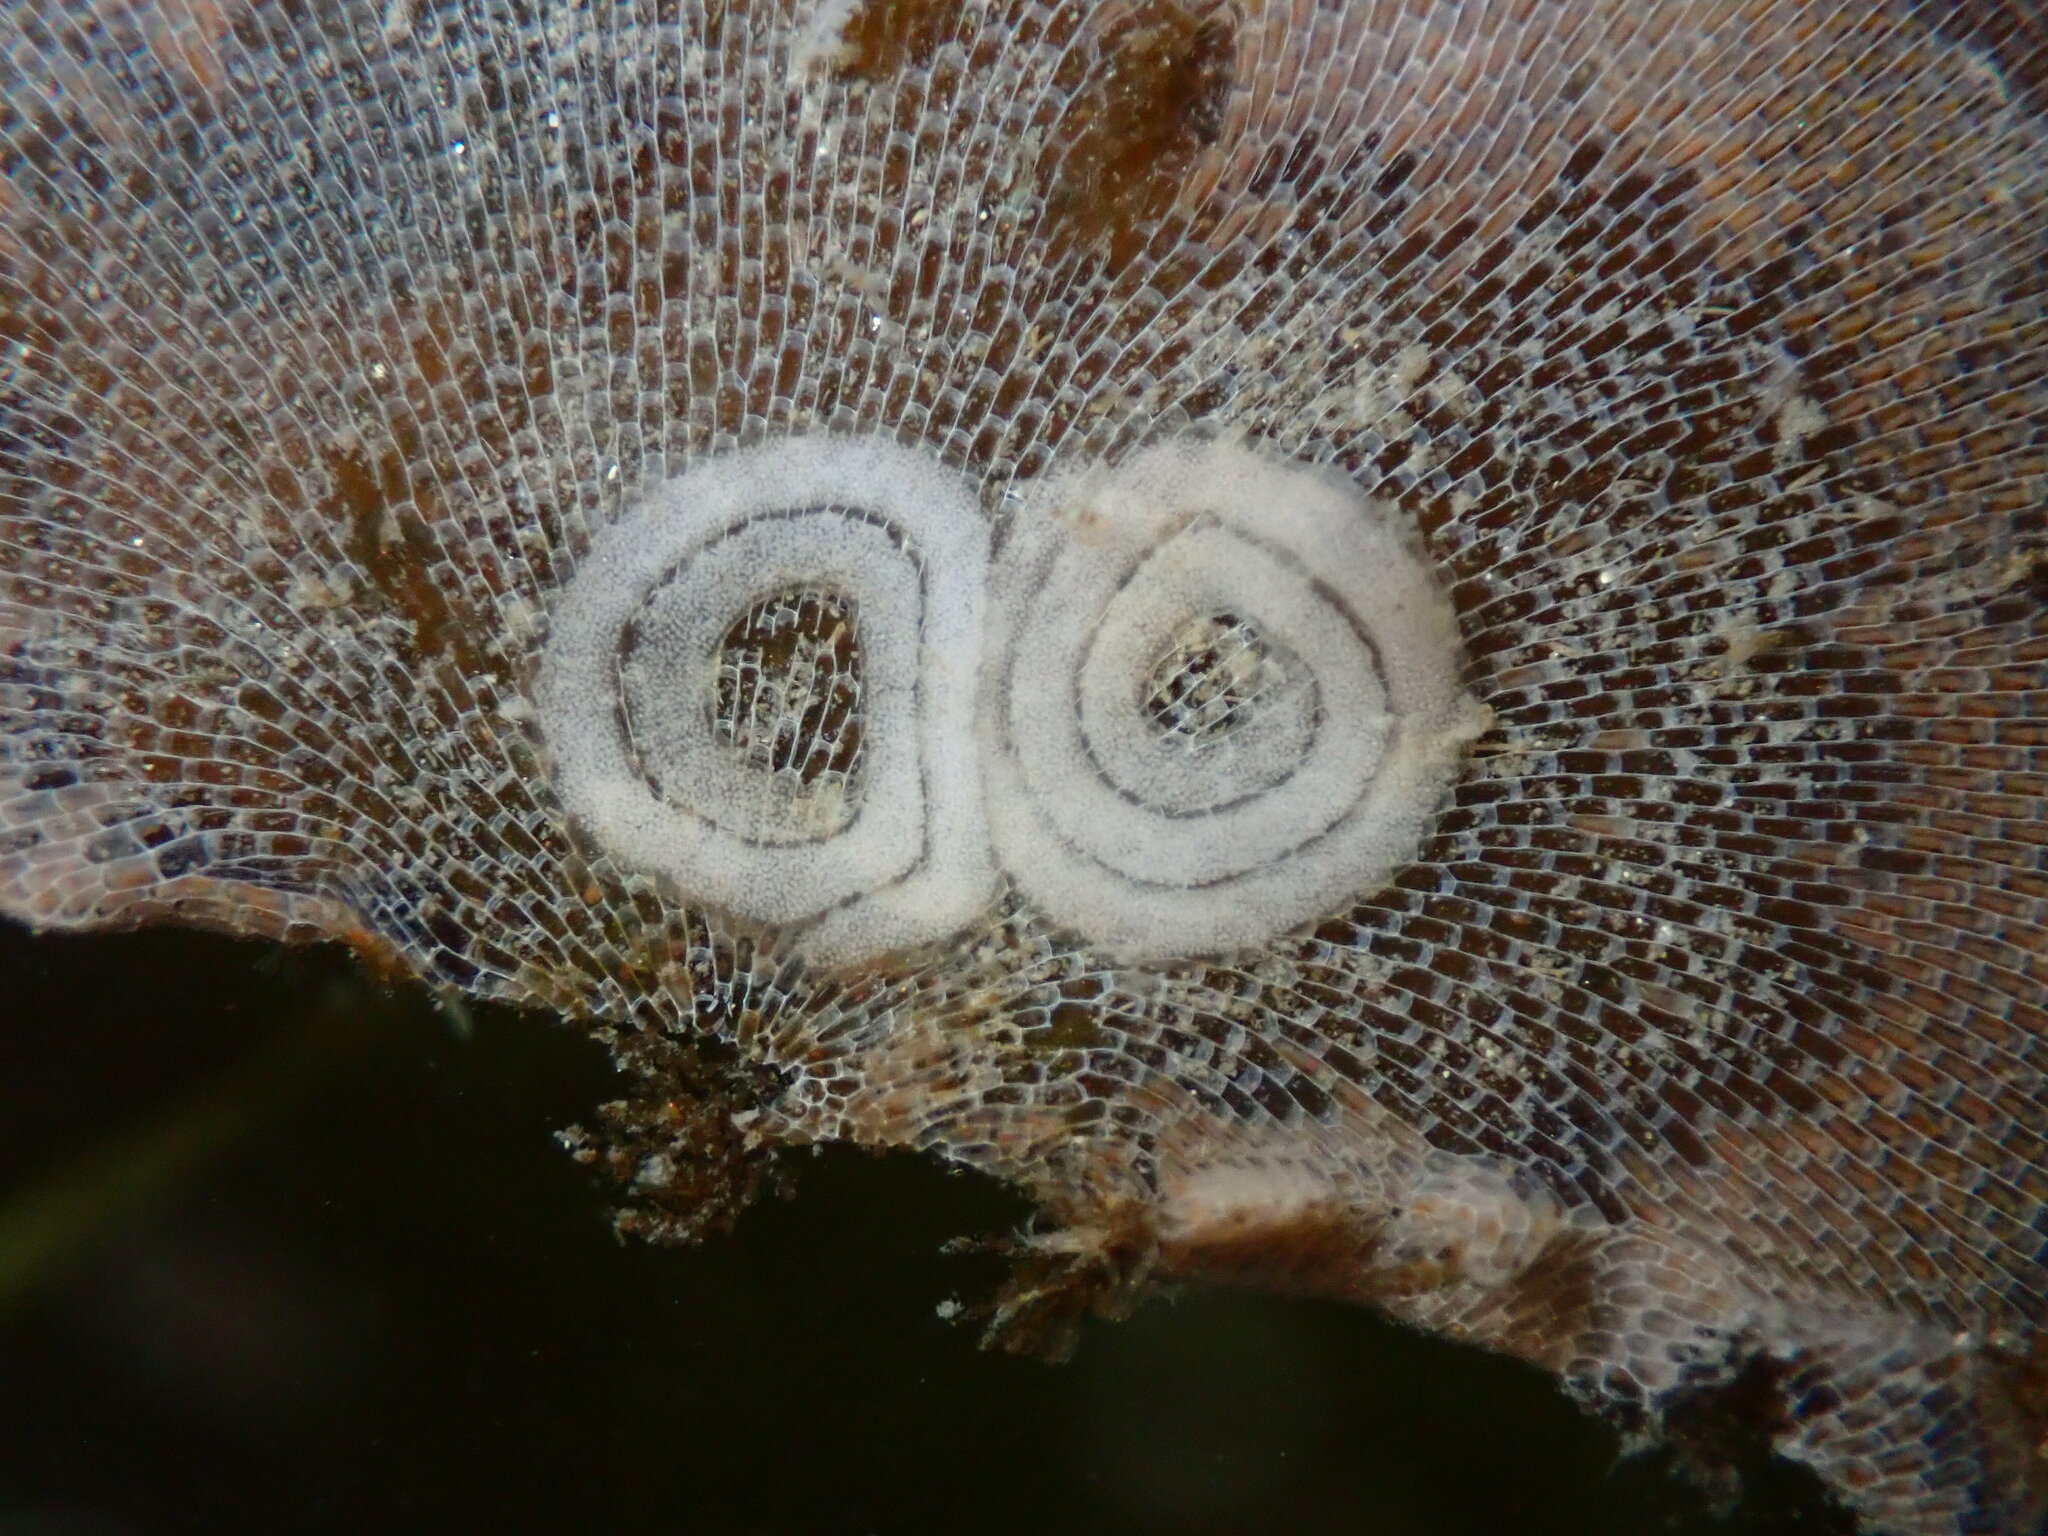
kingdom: Animalia
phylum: Mollusca
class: Gastropoda
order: Nudibranchia
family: Corambidae
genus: Corambe
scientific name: Corambe pacifica
